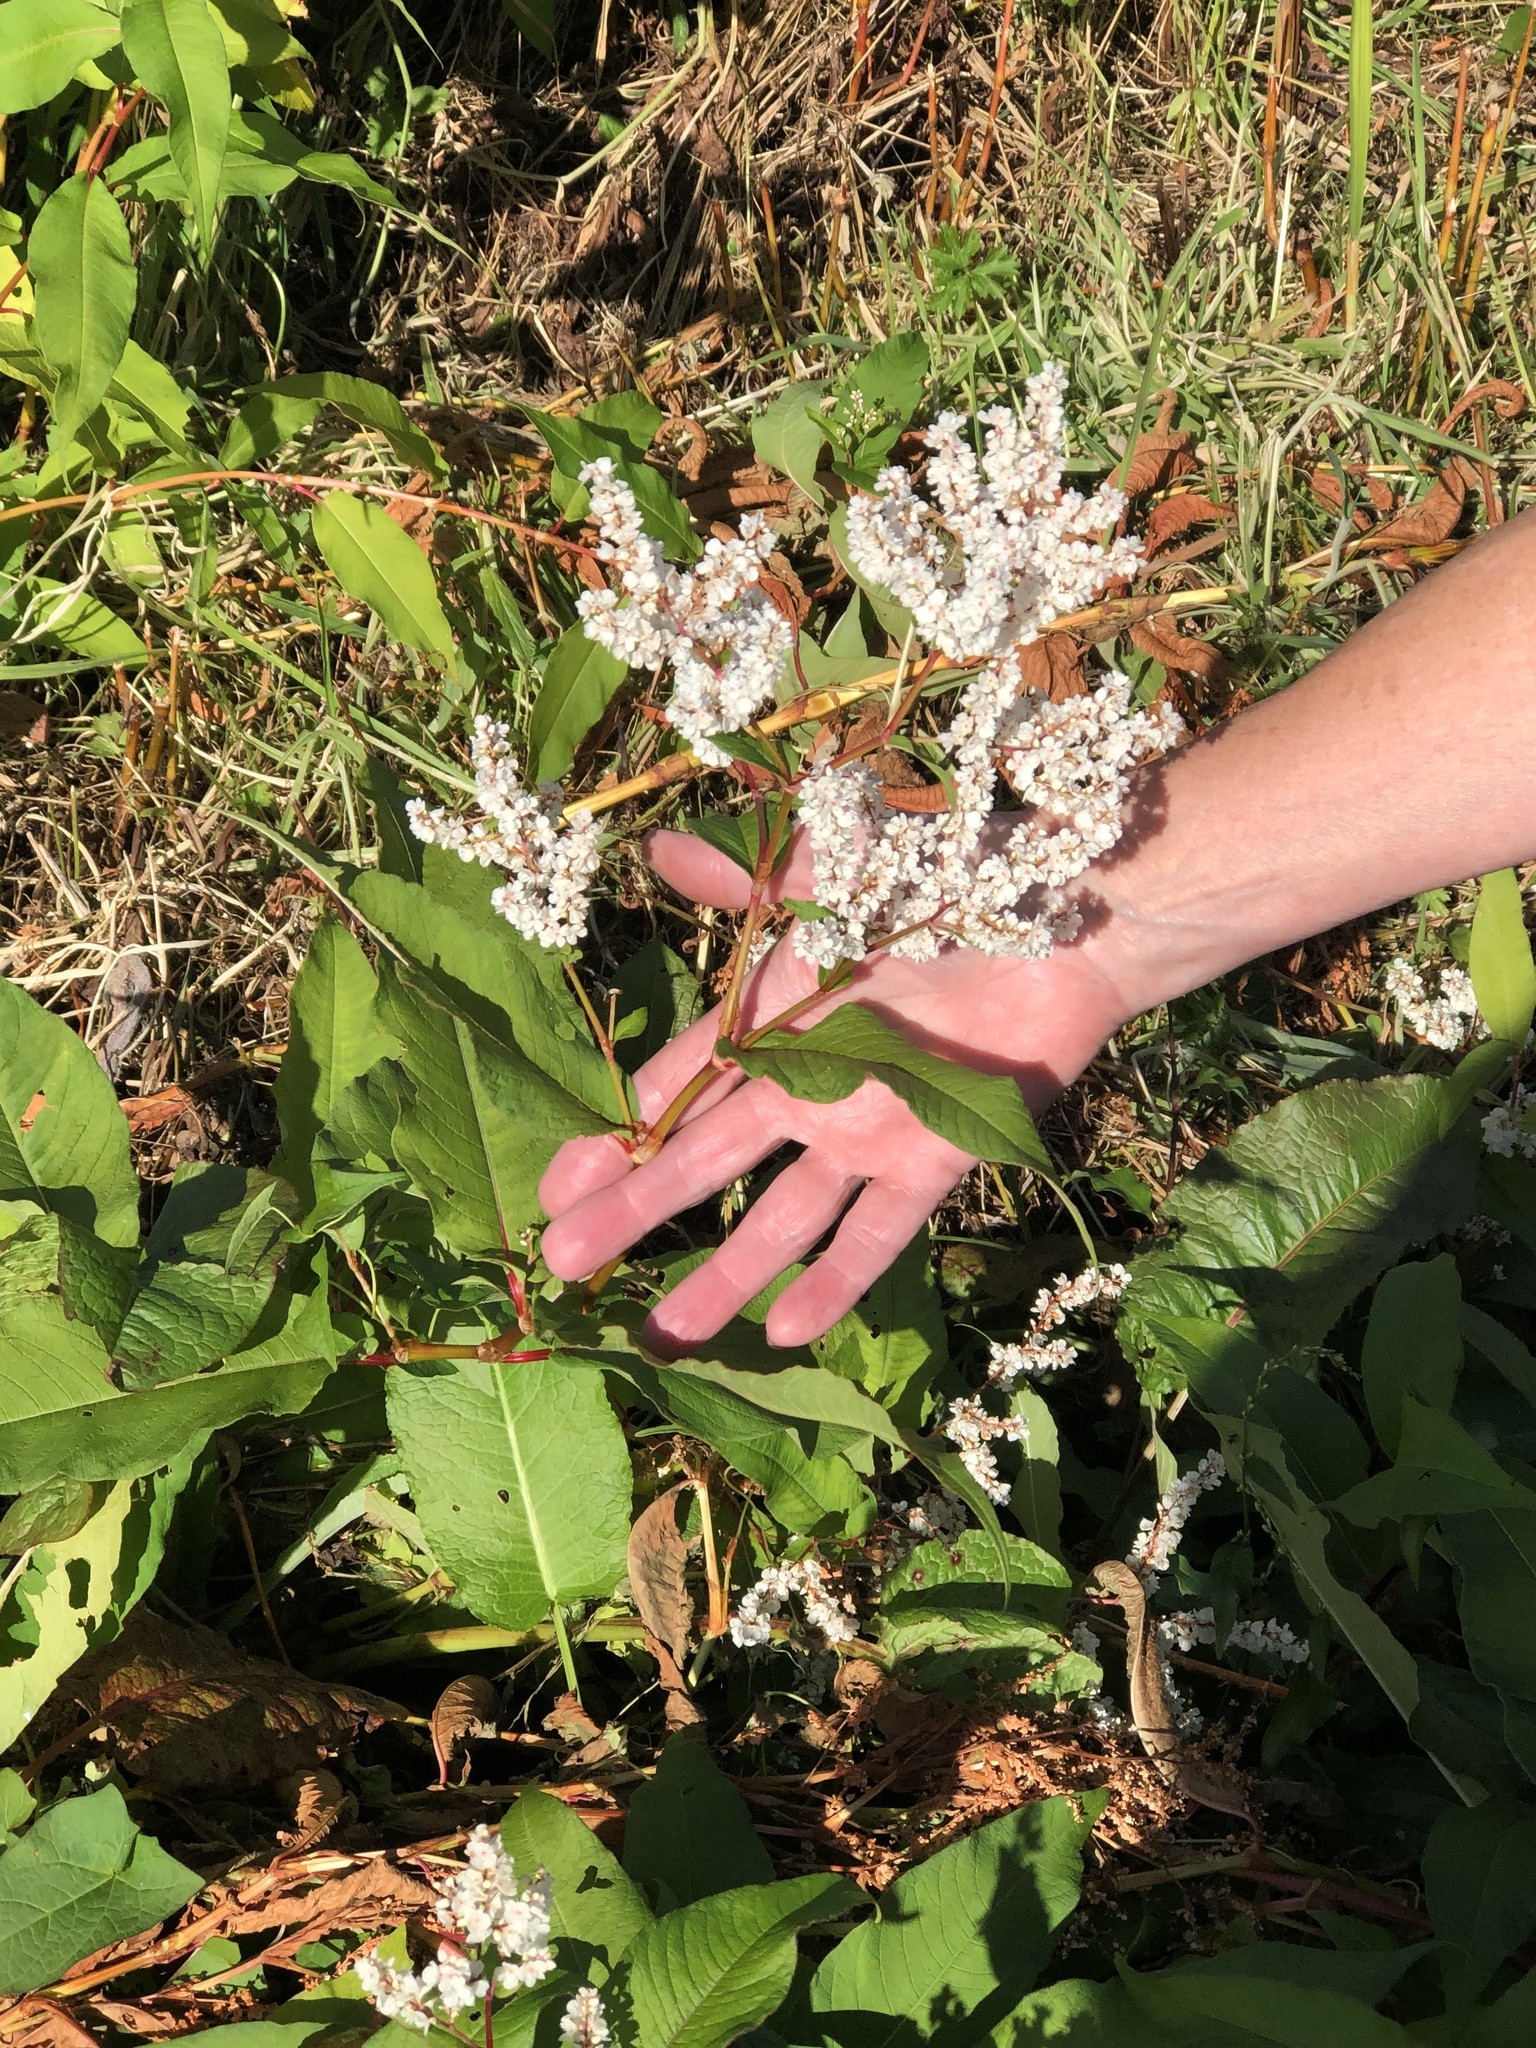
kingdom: Plantae
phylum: Tracheophyta
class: Magnoliopsida
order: Caryophyllales
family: Polygonaceae
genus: Koenigia
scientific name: Koenigia polystachya
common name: Himalayan knotweed
